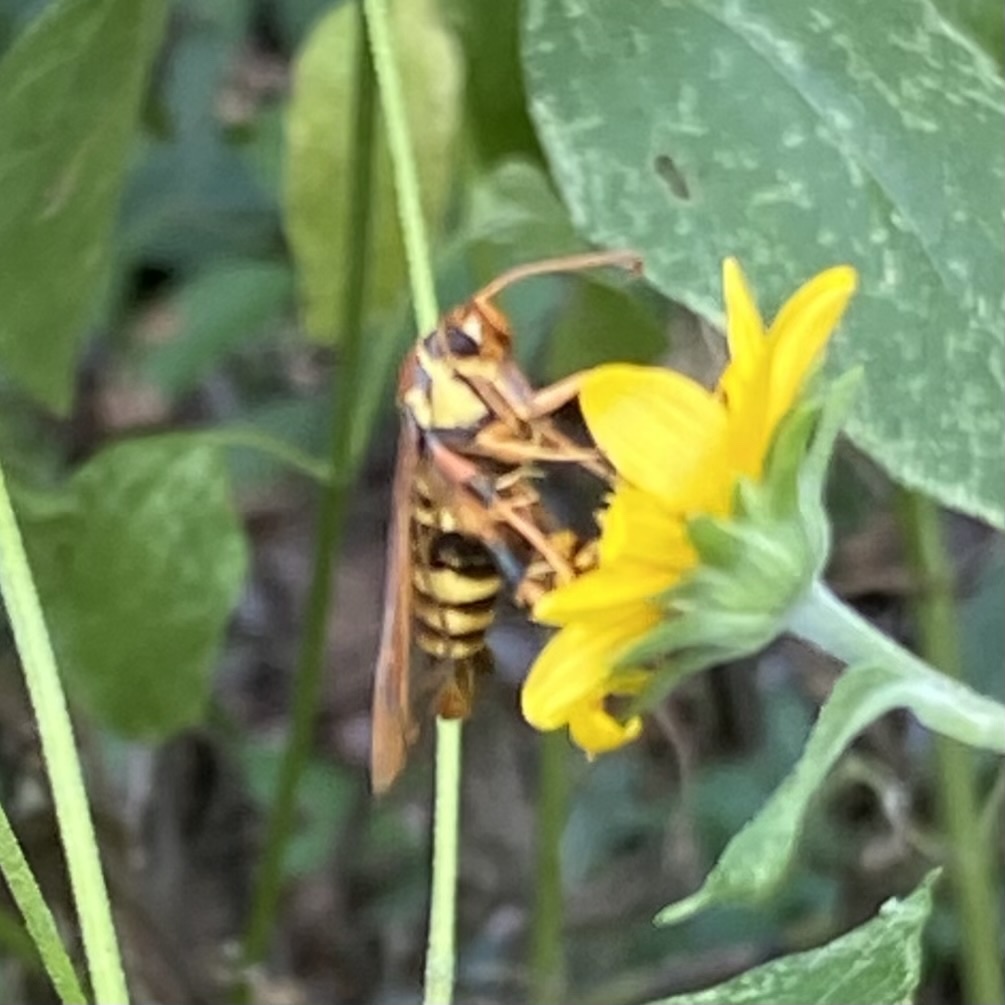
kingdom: Animalia
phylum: Arthropoda
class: Insecta
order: Lepidoptera
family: Sesiidae
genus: Carmenta
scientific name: Carmenta armasata
